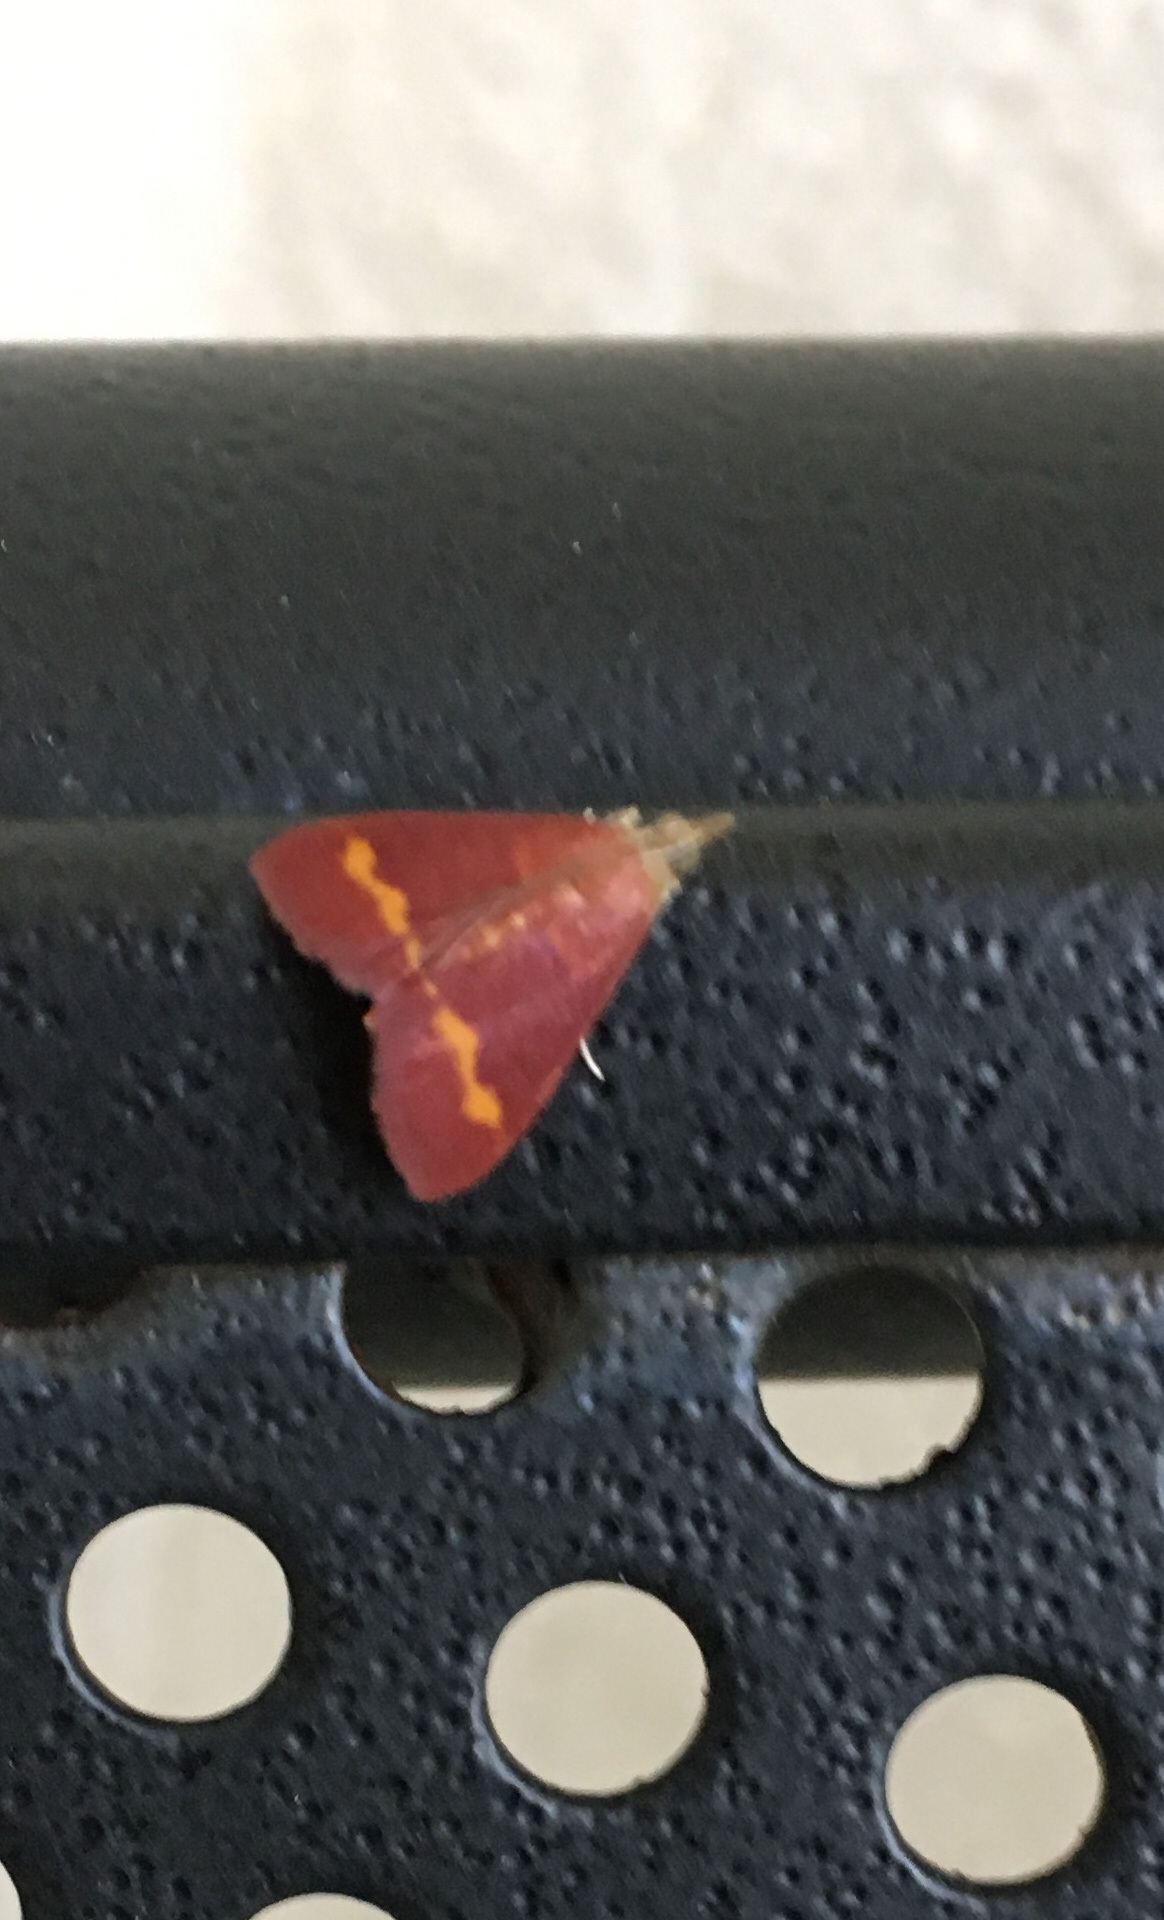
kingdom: Animalia
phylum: Arthropoda
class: Insecta
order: Lepidoptera
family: Crambidae
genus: Pyrausta
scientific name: Pyrausta pseuderosnealis
